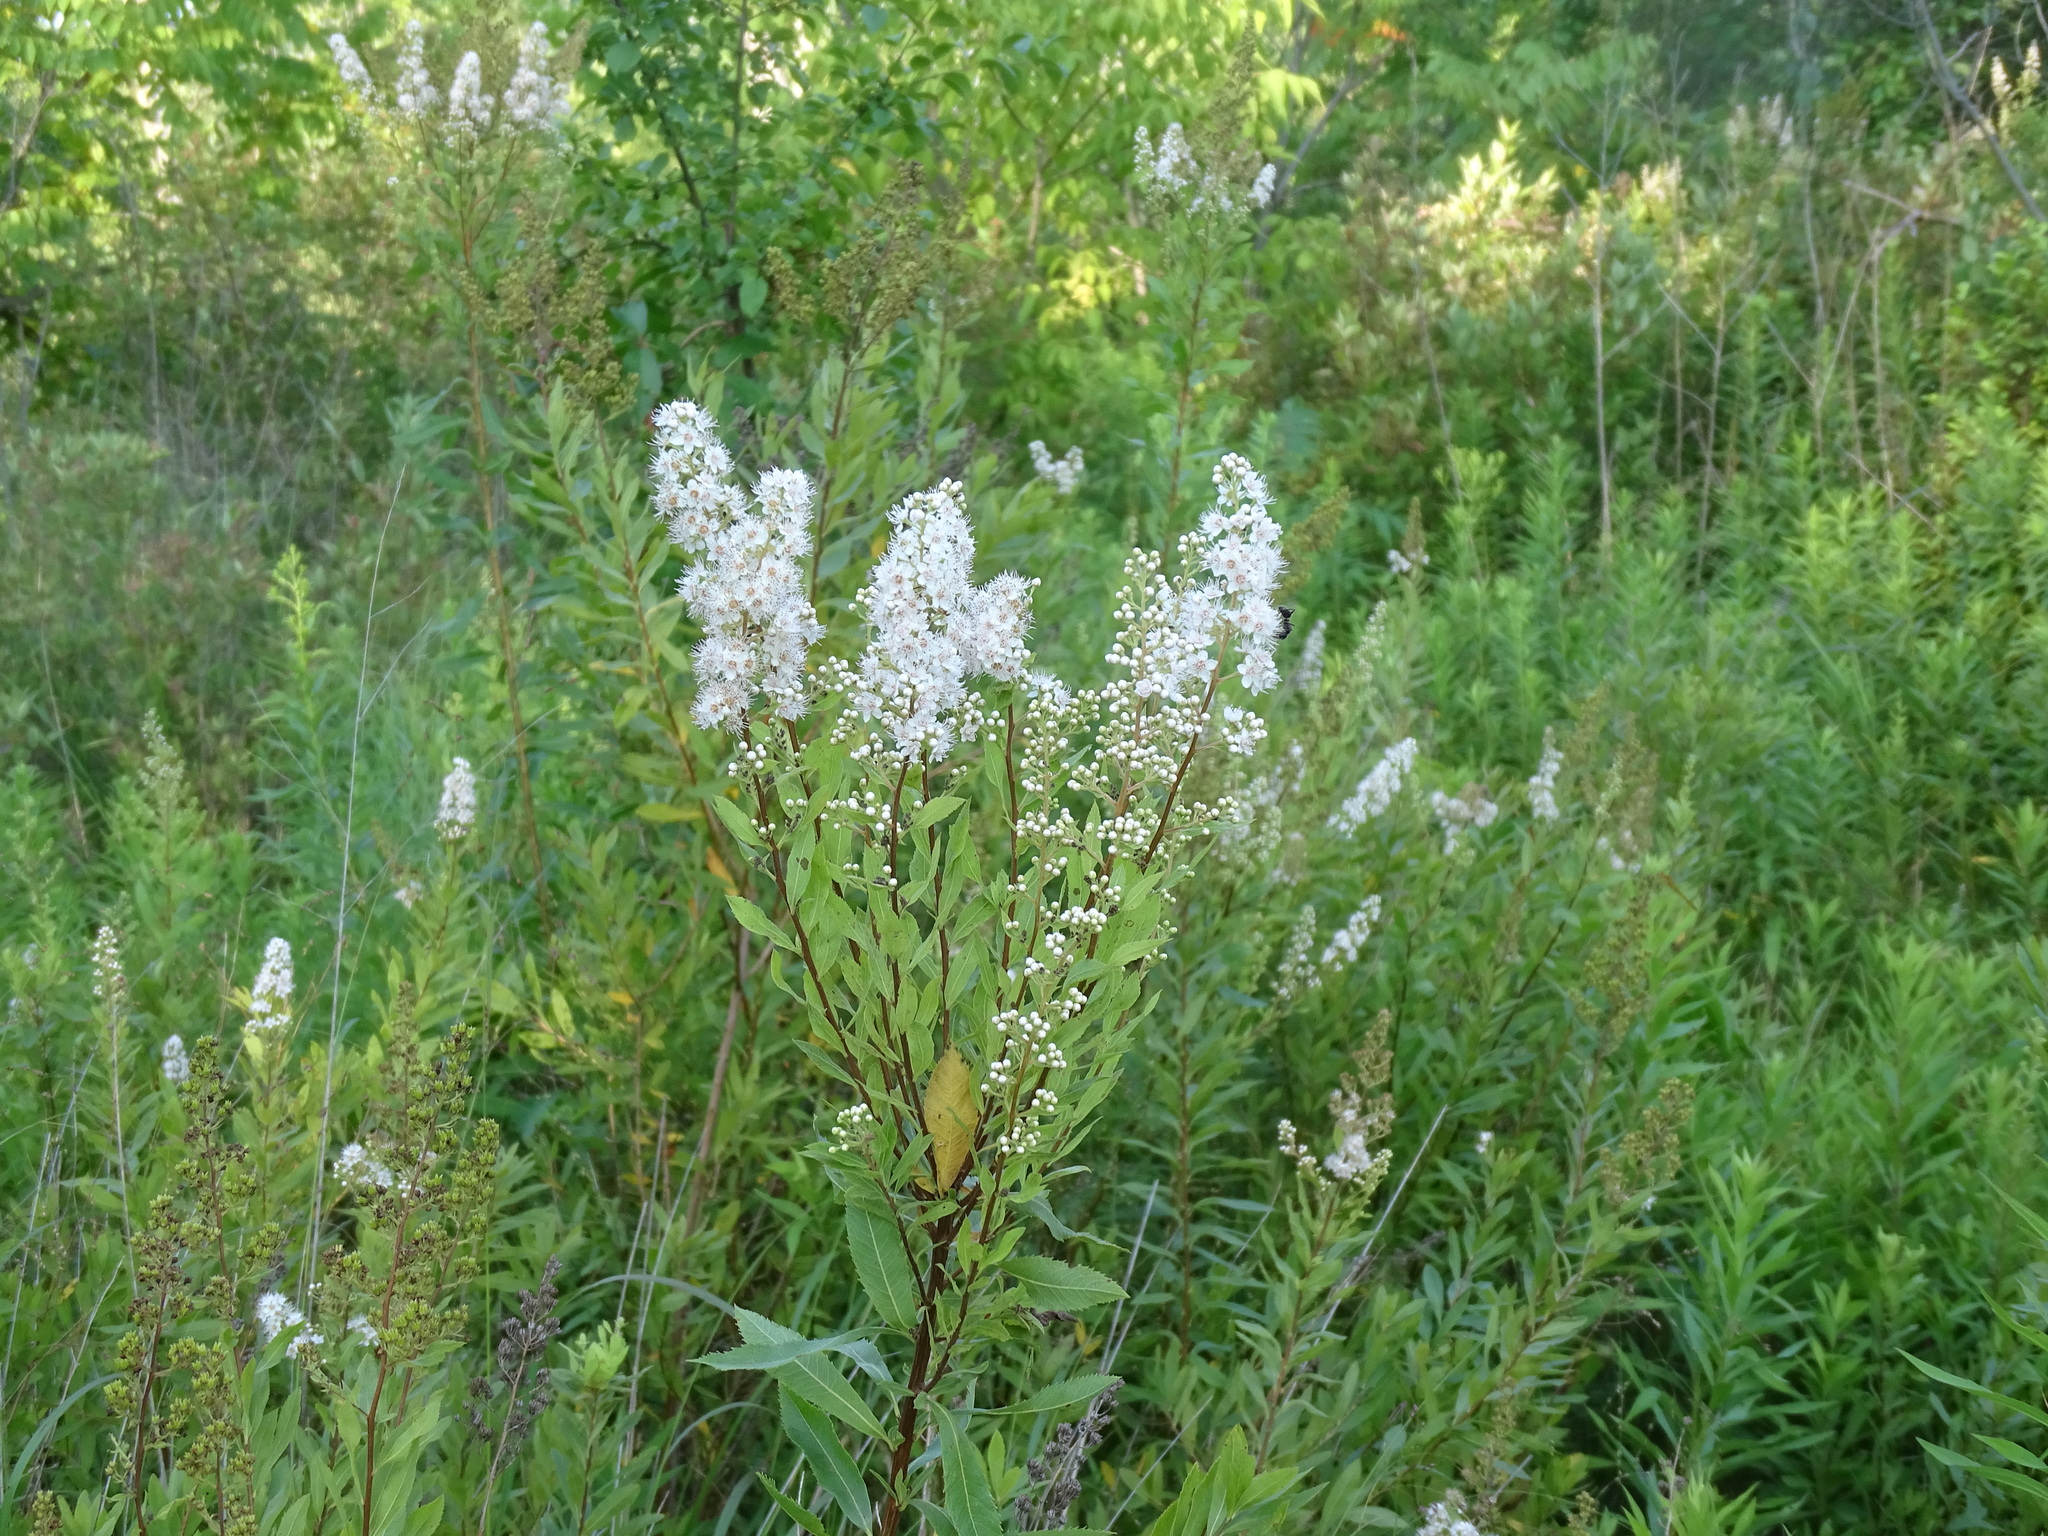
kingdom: Plantae
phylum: Tracheophyta
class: Magnoliopsida
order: Rosales
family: Rosaceae
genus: Spiraea
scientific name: Spiraea alba
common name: Pale bridewort
